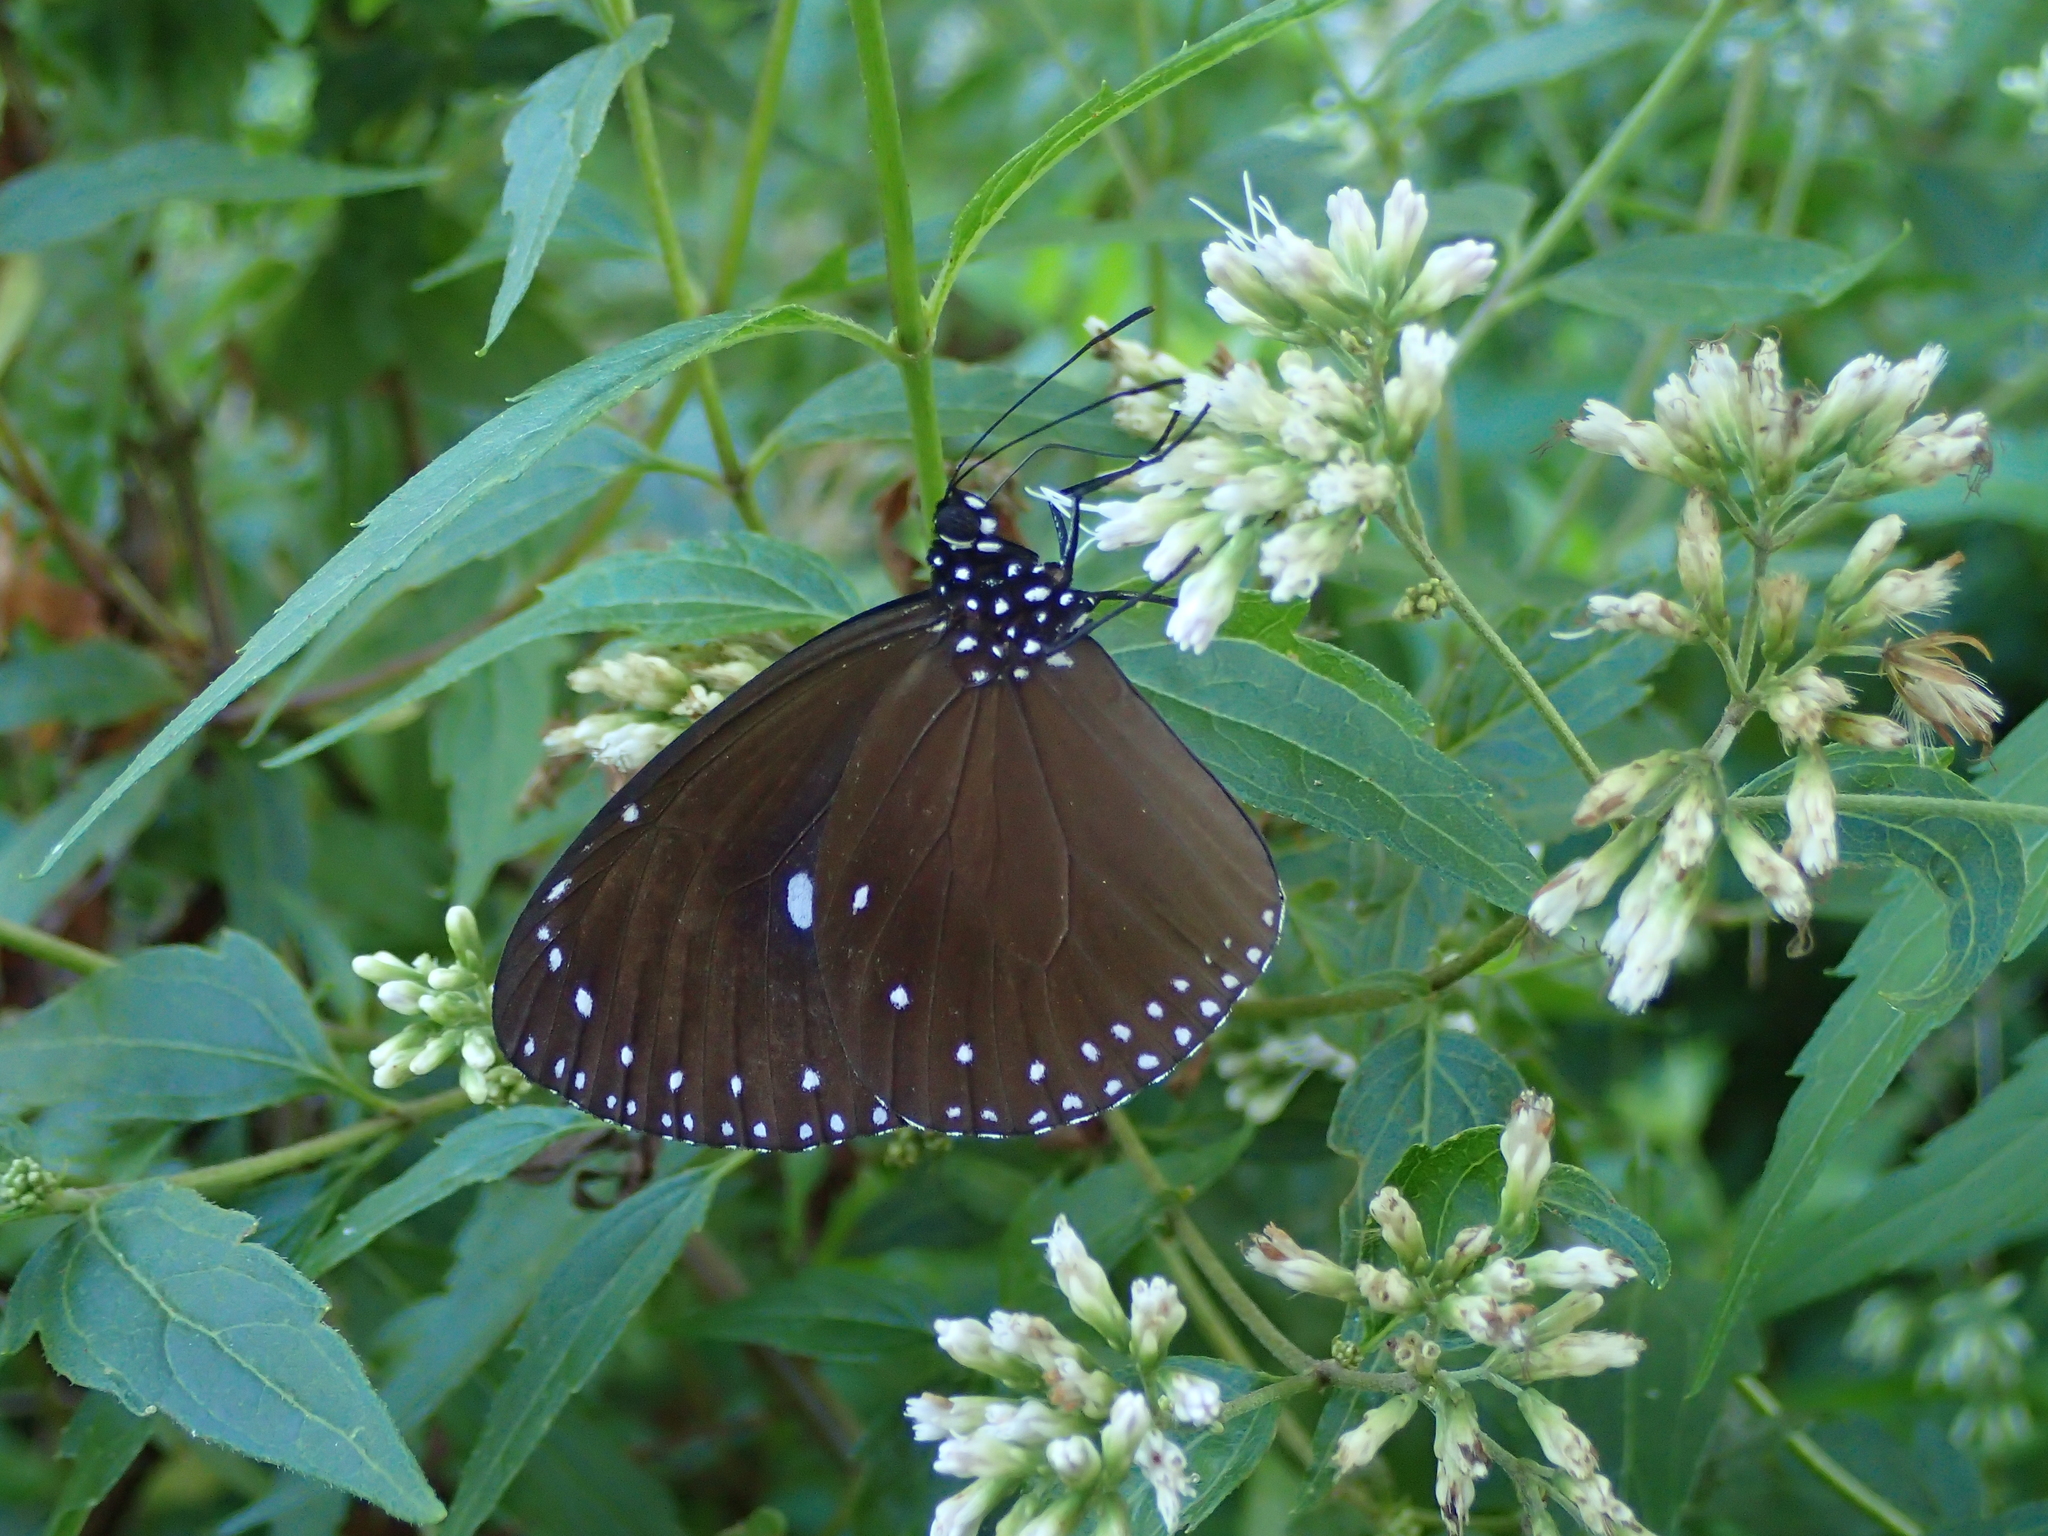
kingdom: Animalia
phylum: Arthropoda
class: Insecta
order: Lepidoptera
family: Nymphalidae
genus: Euploea
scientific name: Euploea tulliolus
